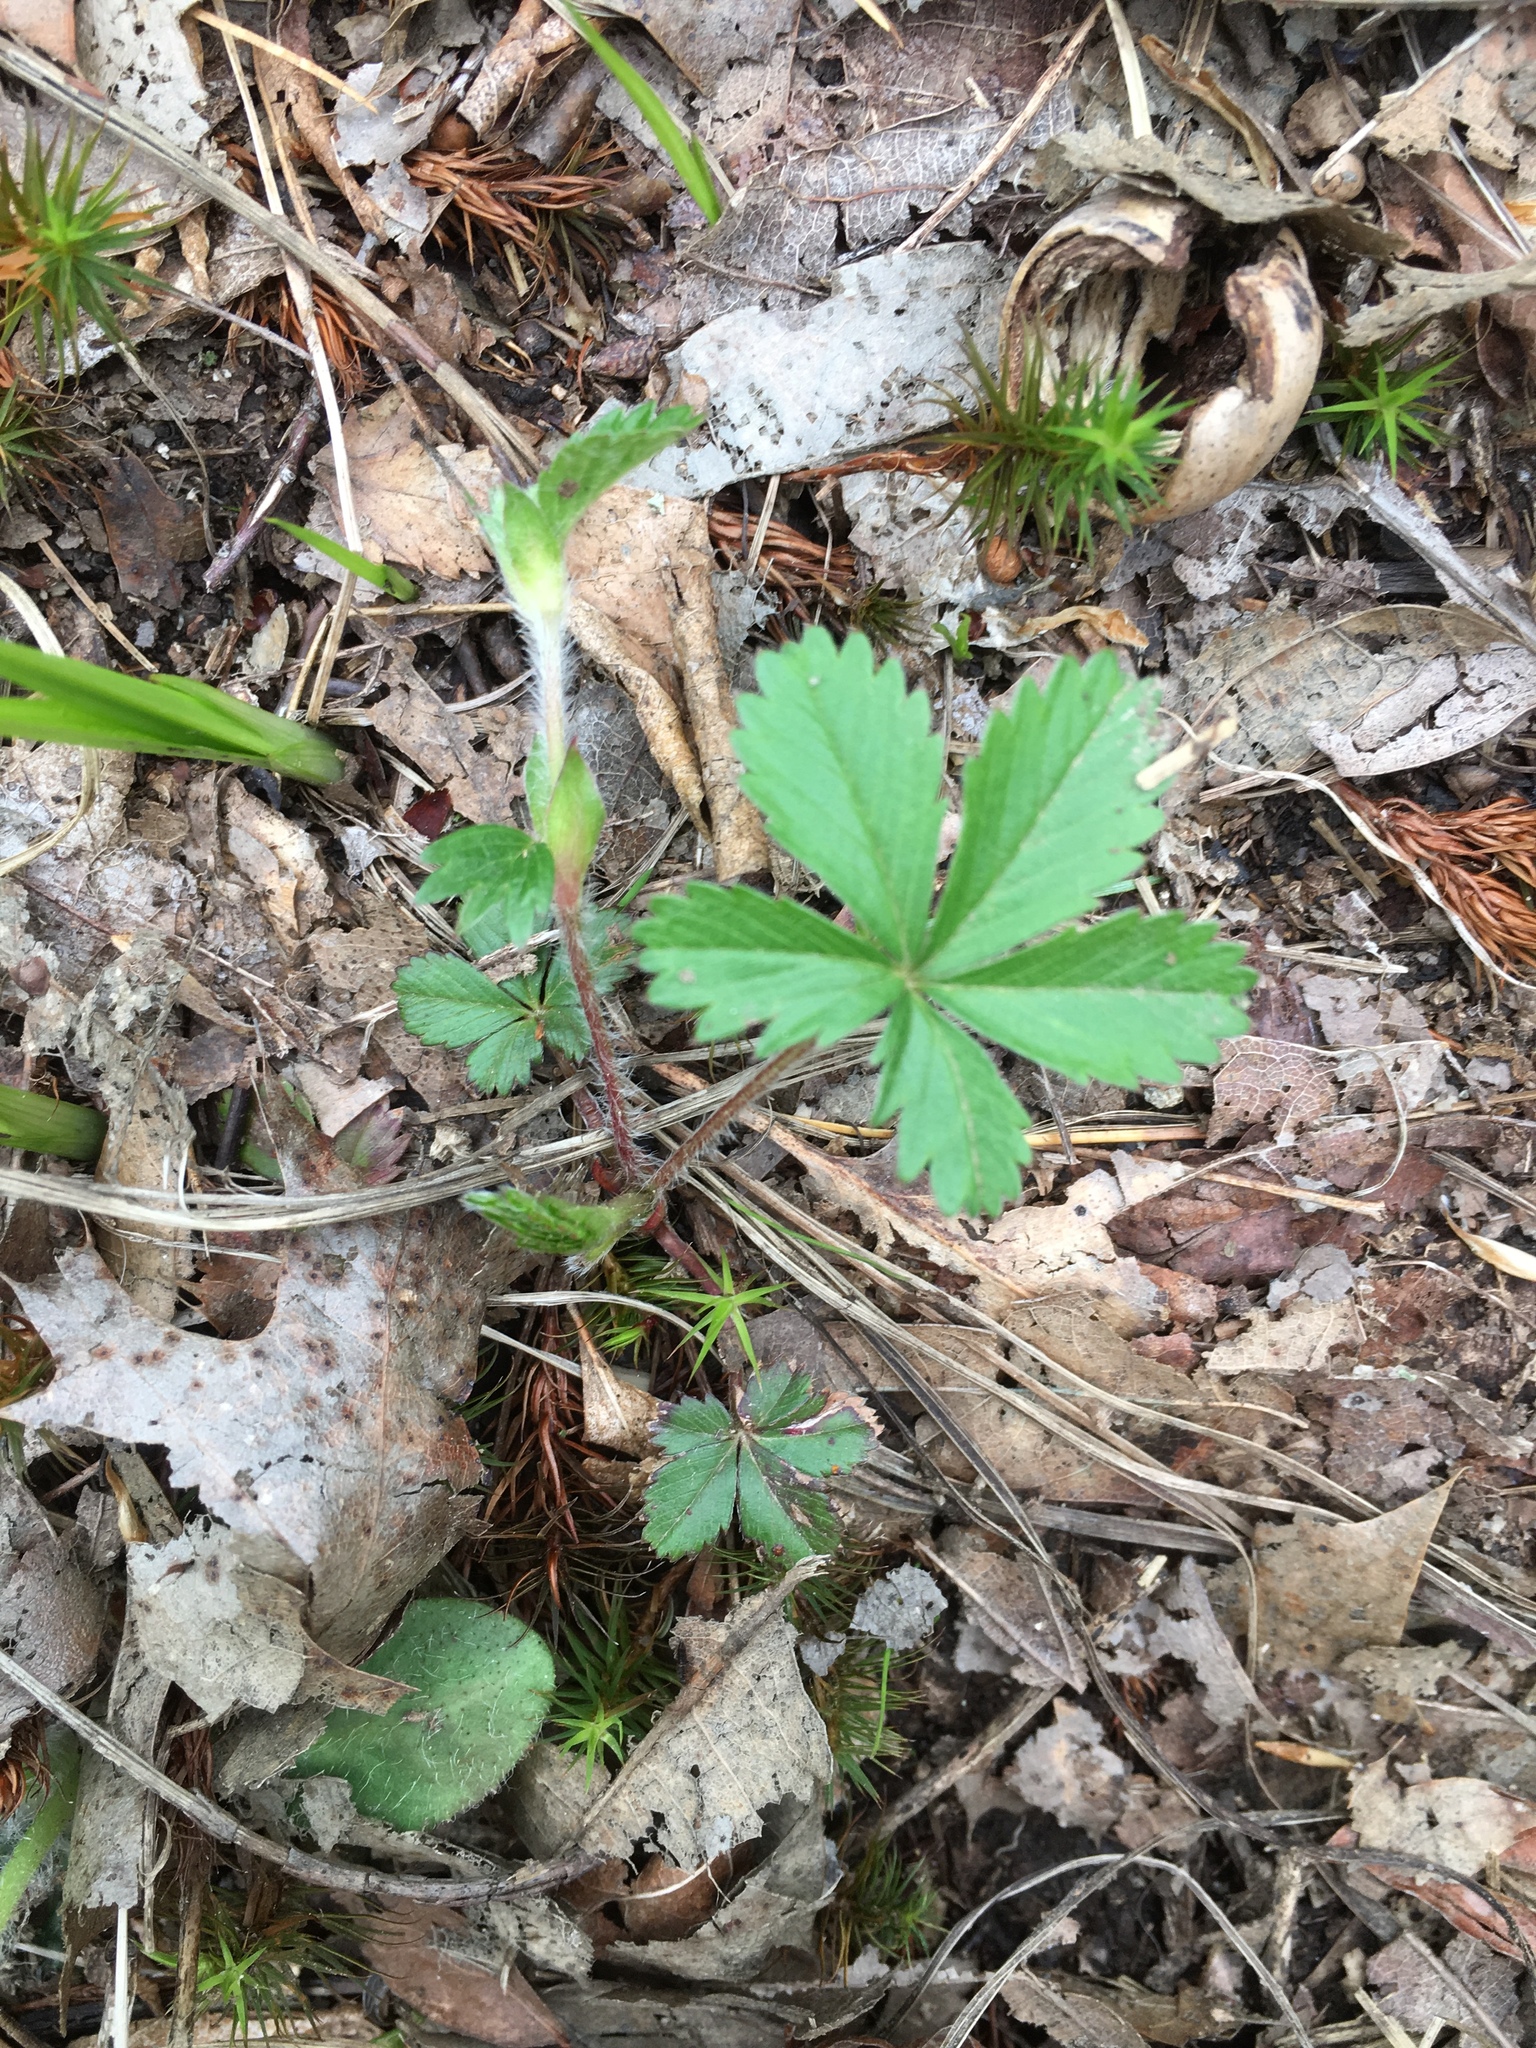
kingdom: Plantae
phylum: Tracheophyta
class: Magnoliopsida
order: Rosales
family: Rosaceae
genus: Potentilla
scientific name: Potentilla canadensis
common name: Canada cinquefoil
